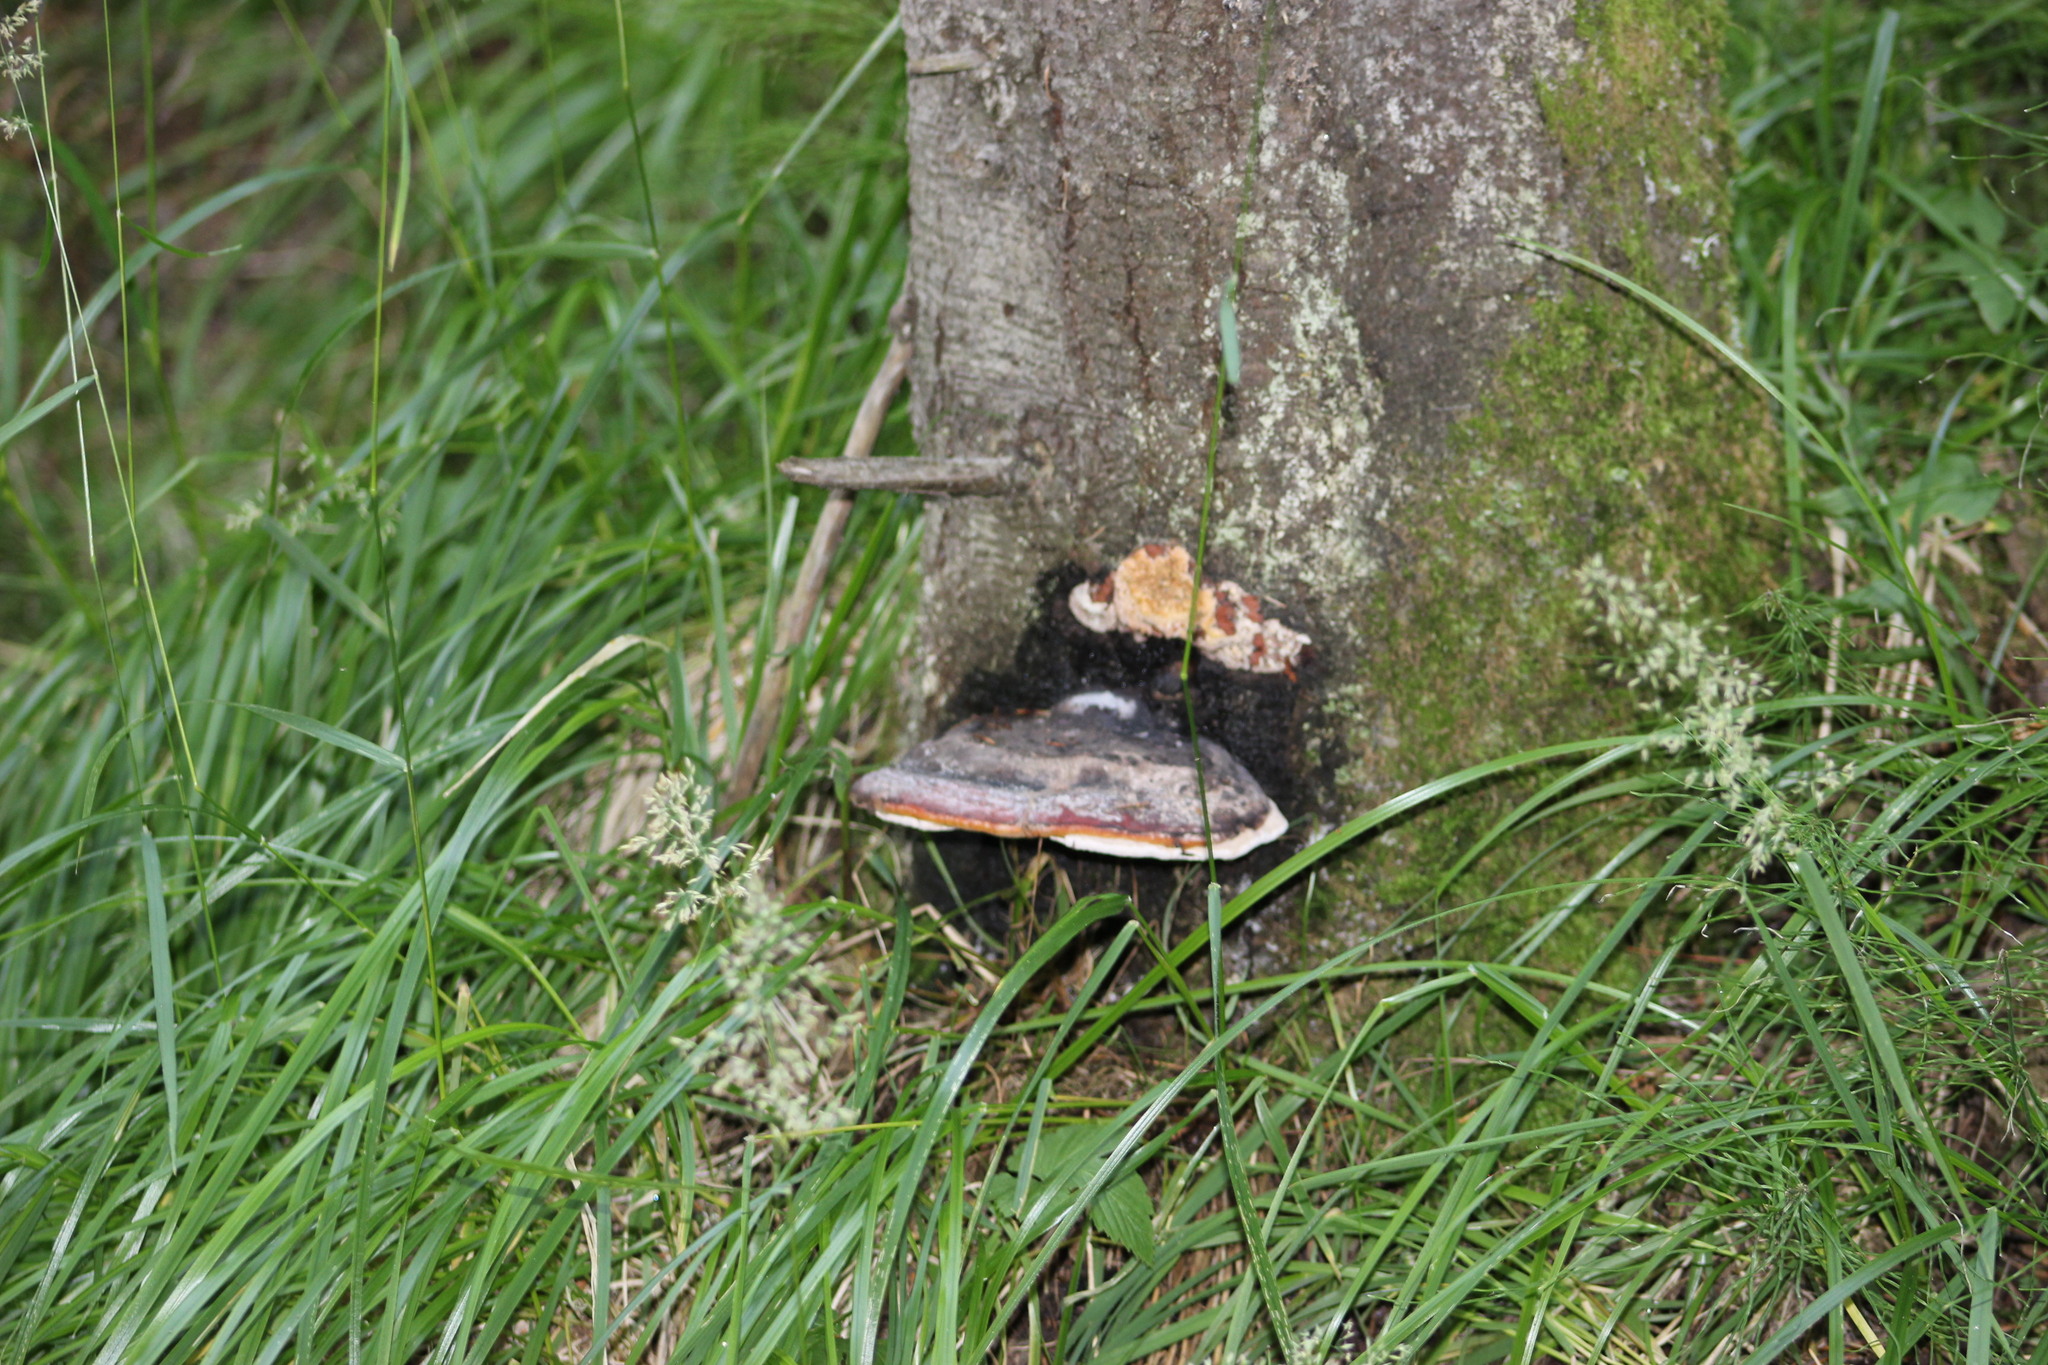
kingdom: Fungi
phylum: Basidiomycota
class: Agaricomycetes
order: Polyporales
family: Fomitopsidaceae
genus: Fomitopsis
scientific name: Fomitopsis pinicola
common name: Red-belted bracket
